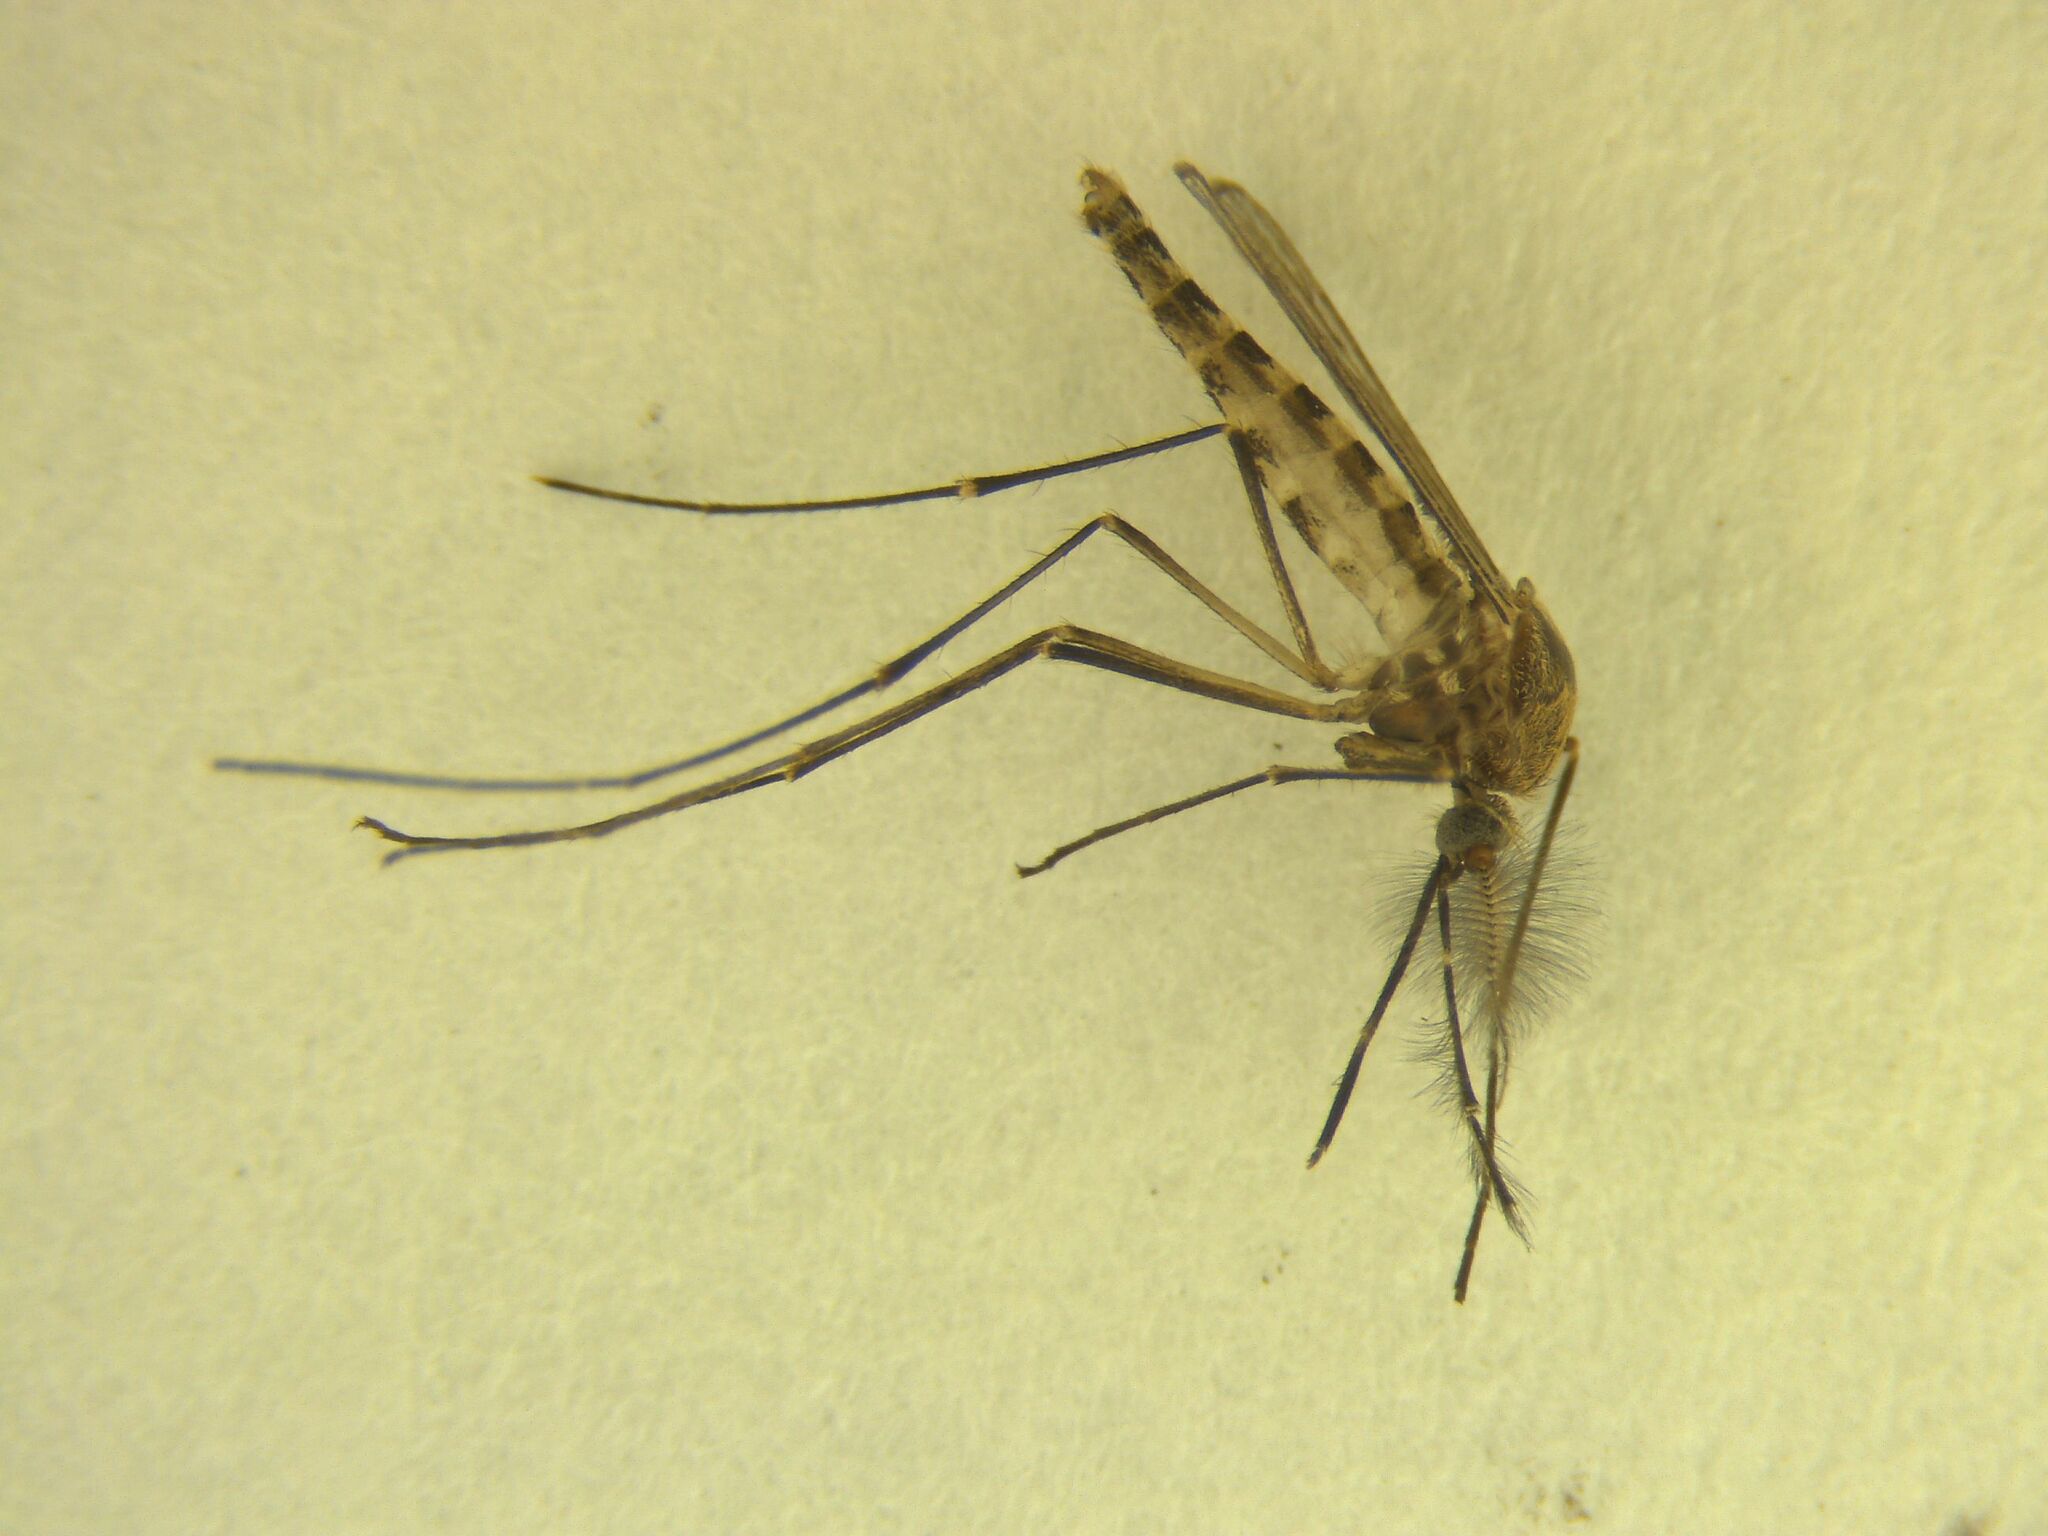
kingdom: Animalia
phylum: Arthropoda
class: Insecta
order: Diptera
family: Culicidae
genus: Culex
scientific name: Culex pervigilans
